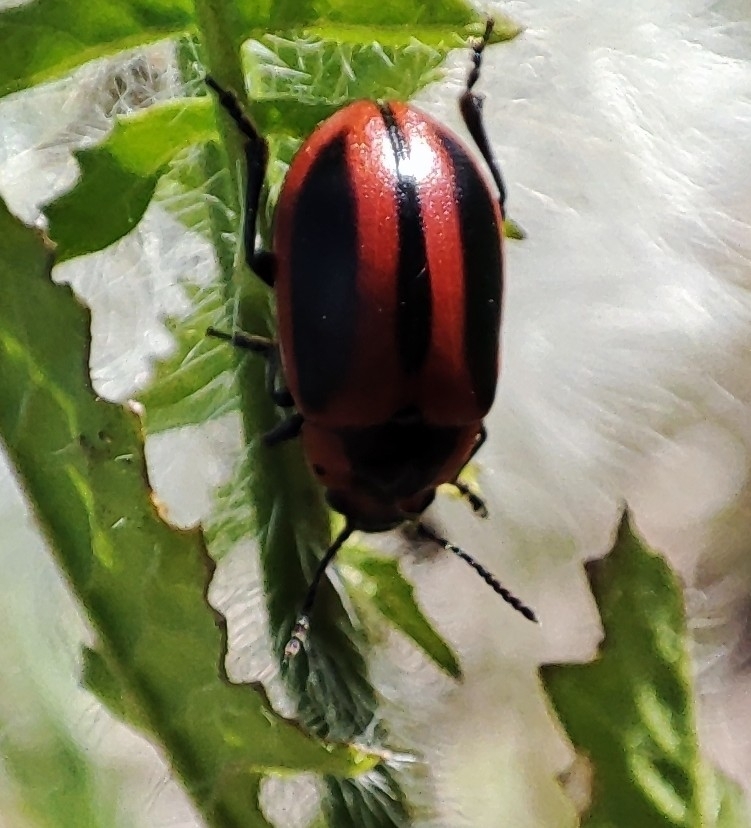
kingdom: Animalia
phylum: Arthropoda
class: Insecta
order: Coleoptera
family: Chrysomelidae
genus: Entomoscelis
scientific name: Entomoscelis adonidis
